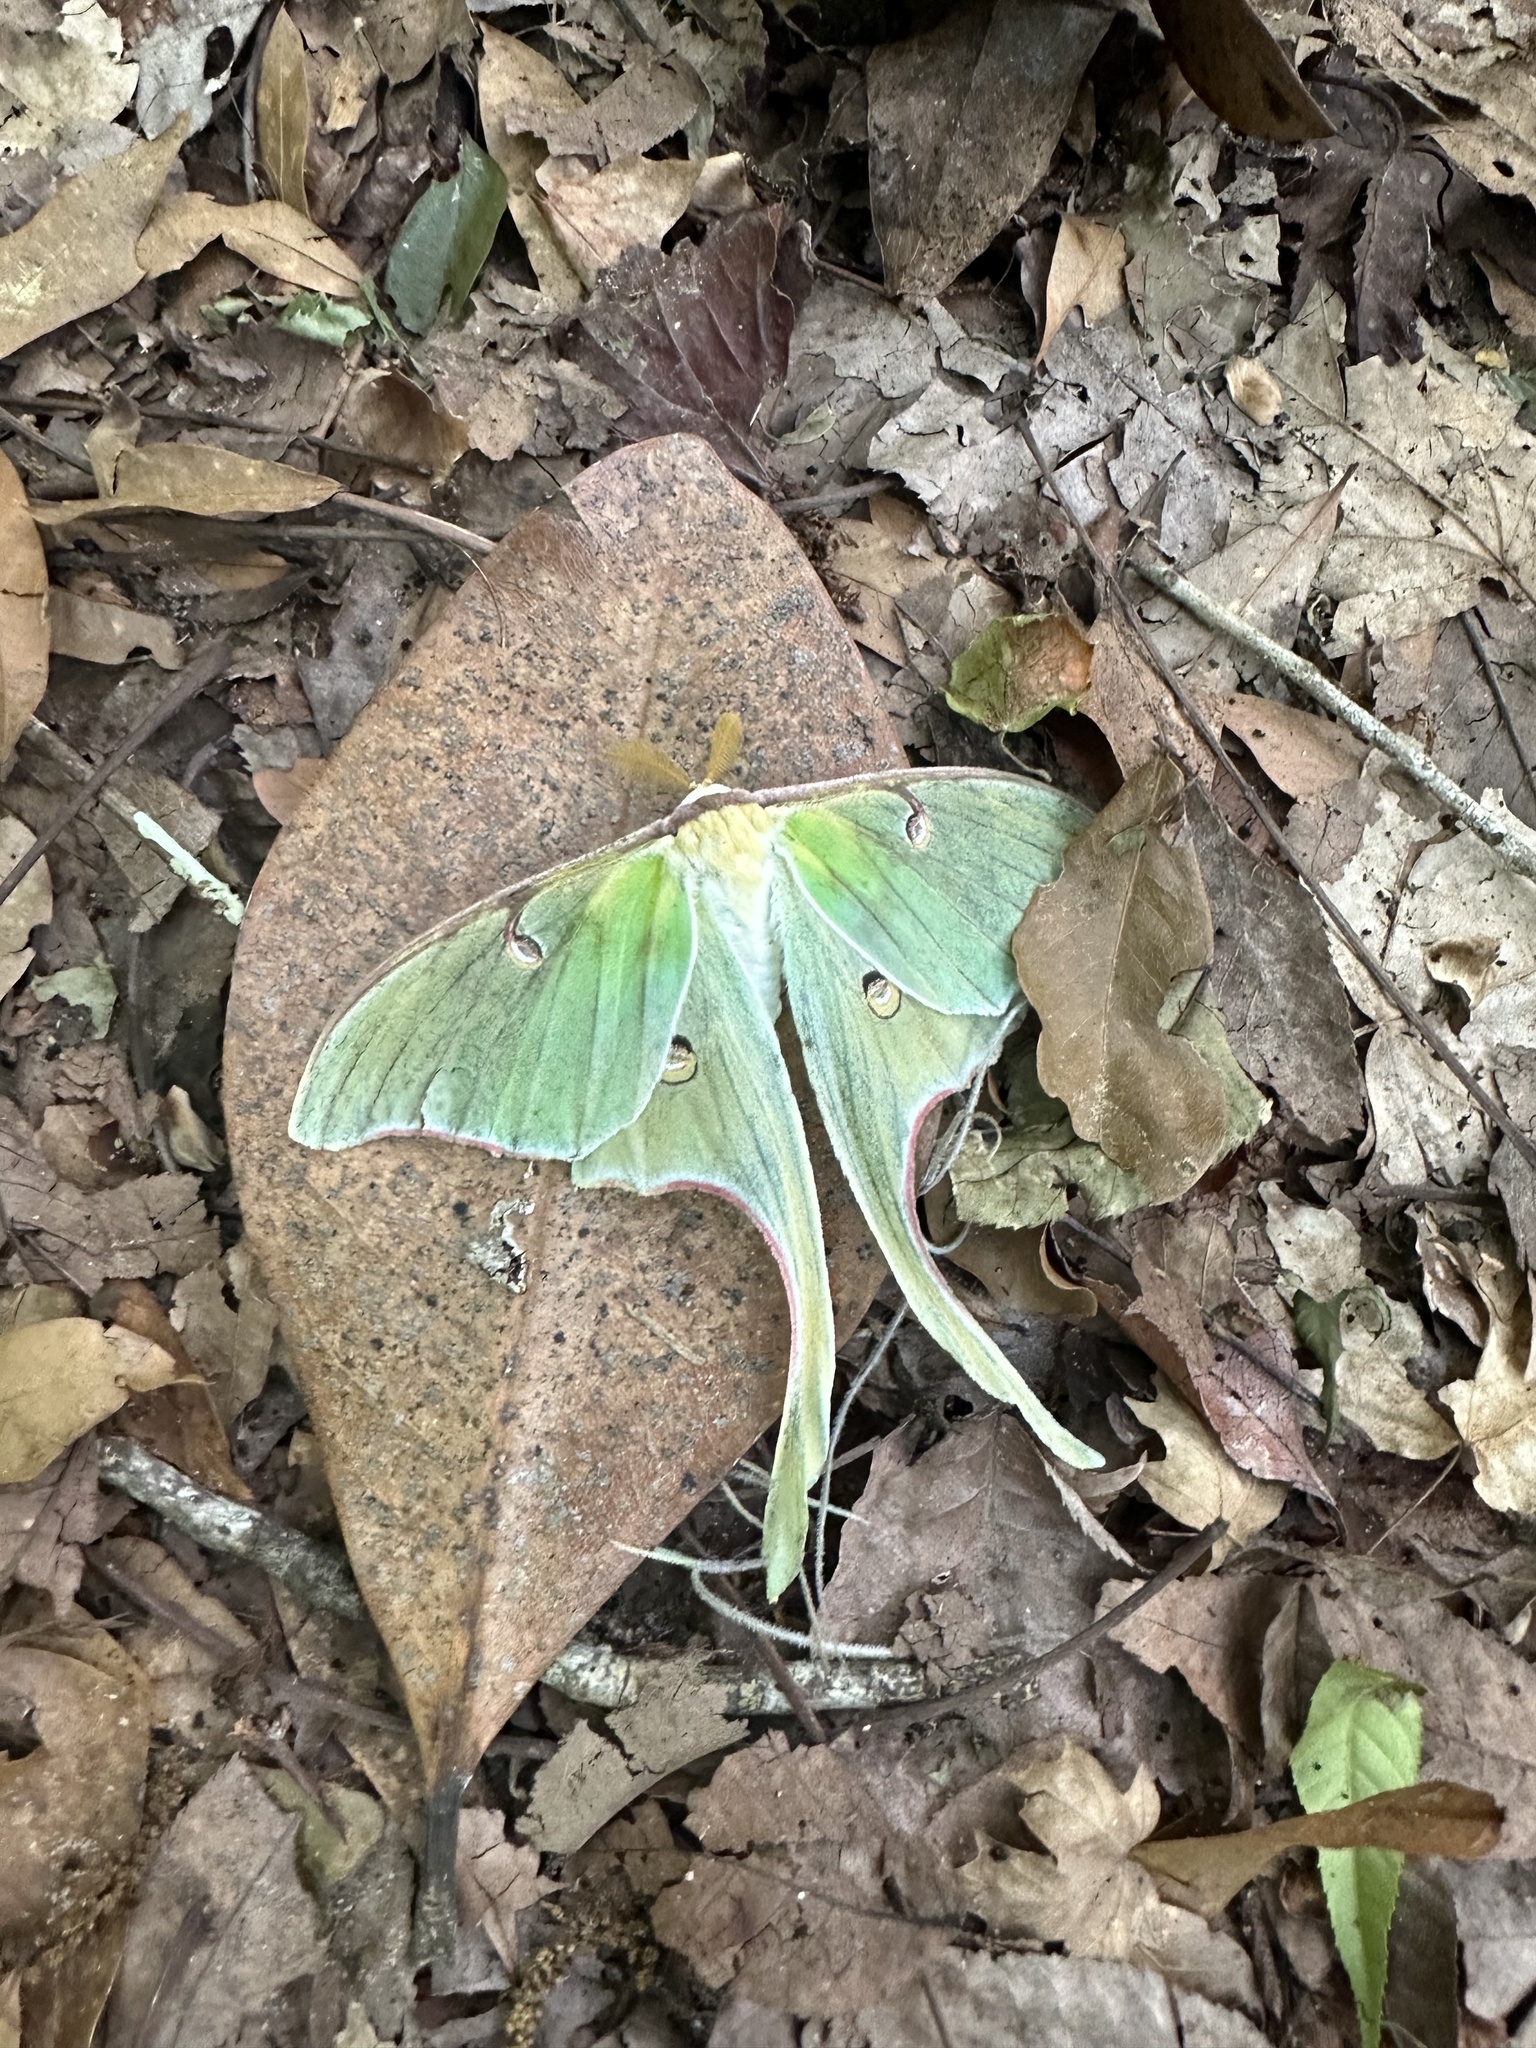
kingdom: Animalia
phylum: Arthropoda
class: Insecta
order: Lepidoptera
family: Saturniidae
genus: Actias
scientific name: Actias luna
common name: Luna moth
